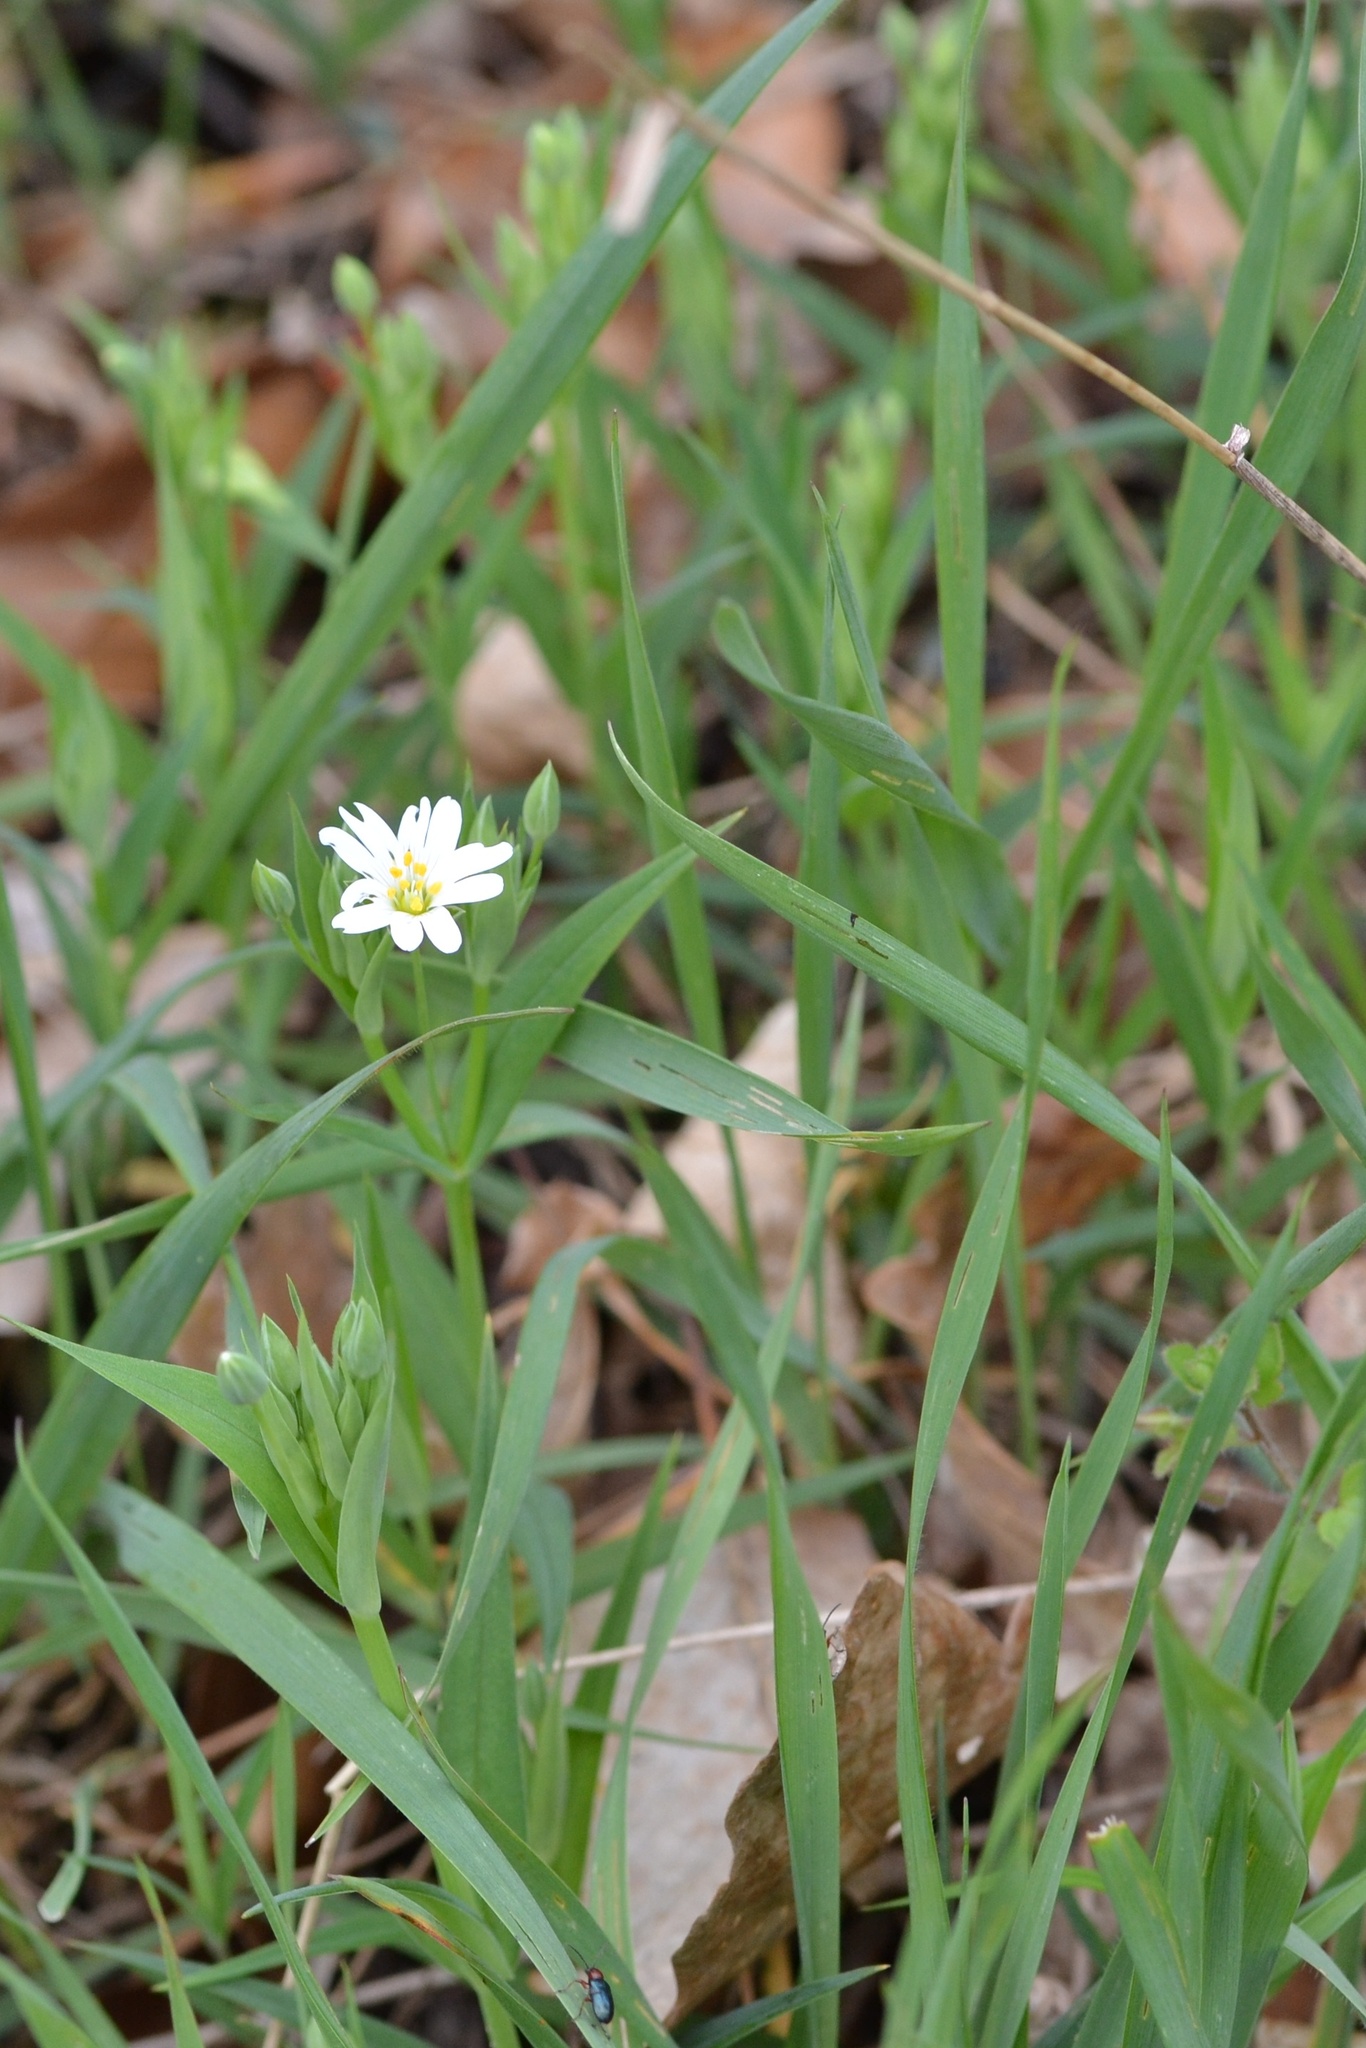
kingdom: Plantae
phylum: Tracheophyta
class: Magnoliopsida
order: Caryophyllales
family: Caryophyllaceae
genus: Rabelera
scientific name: Rabelera holostea
